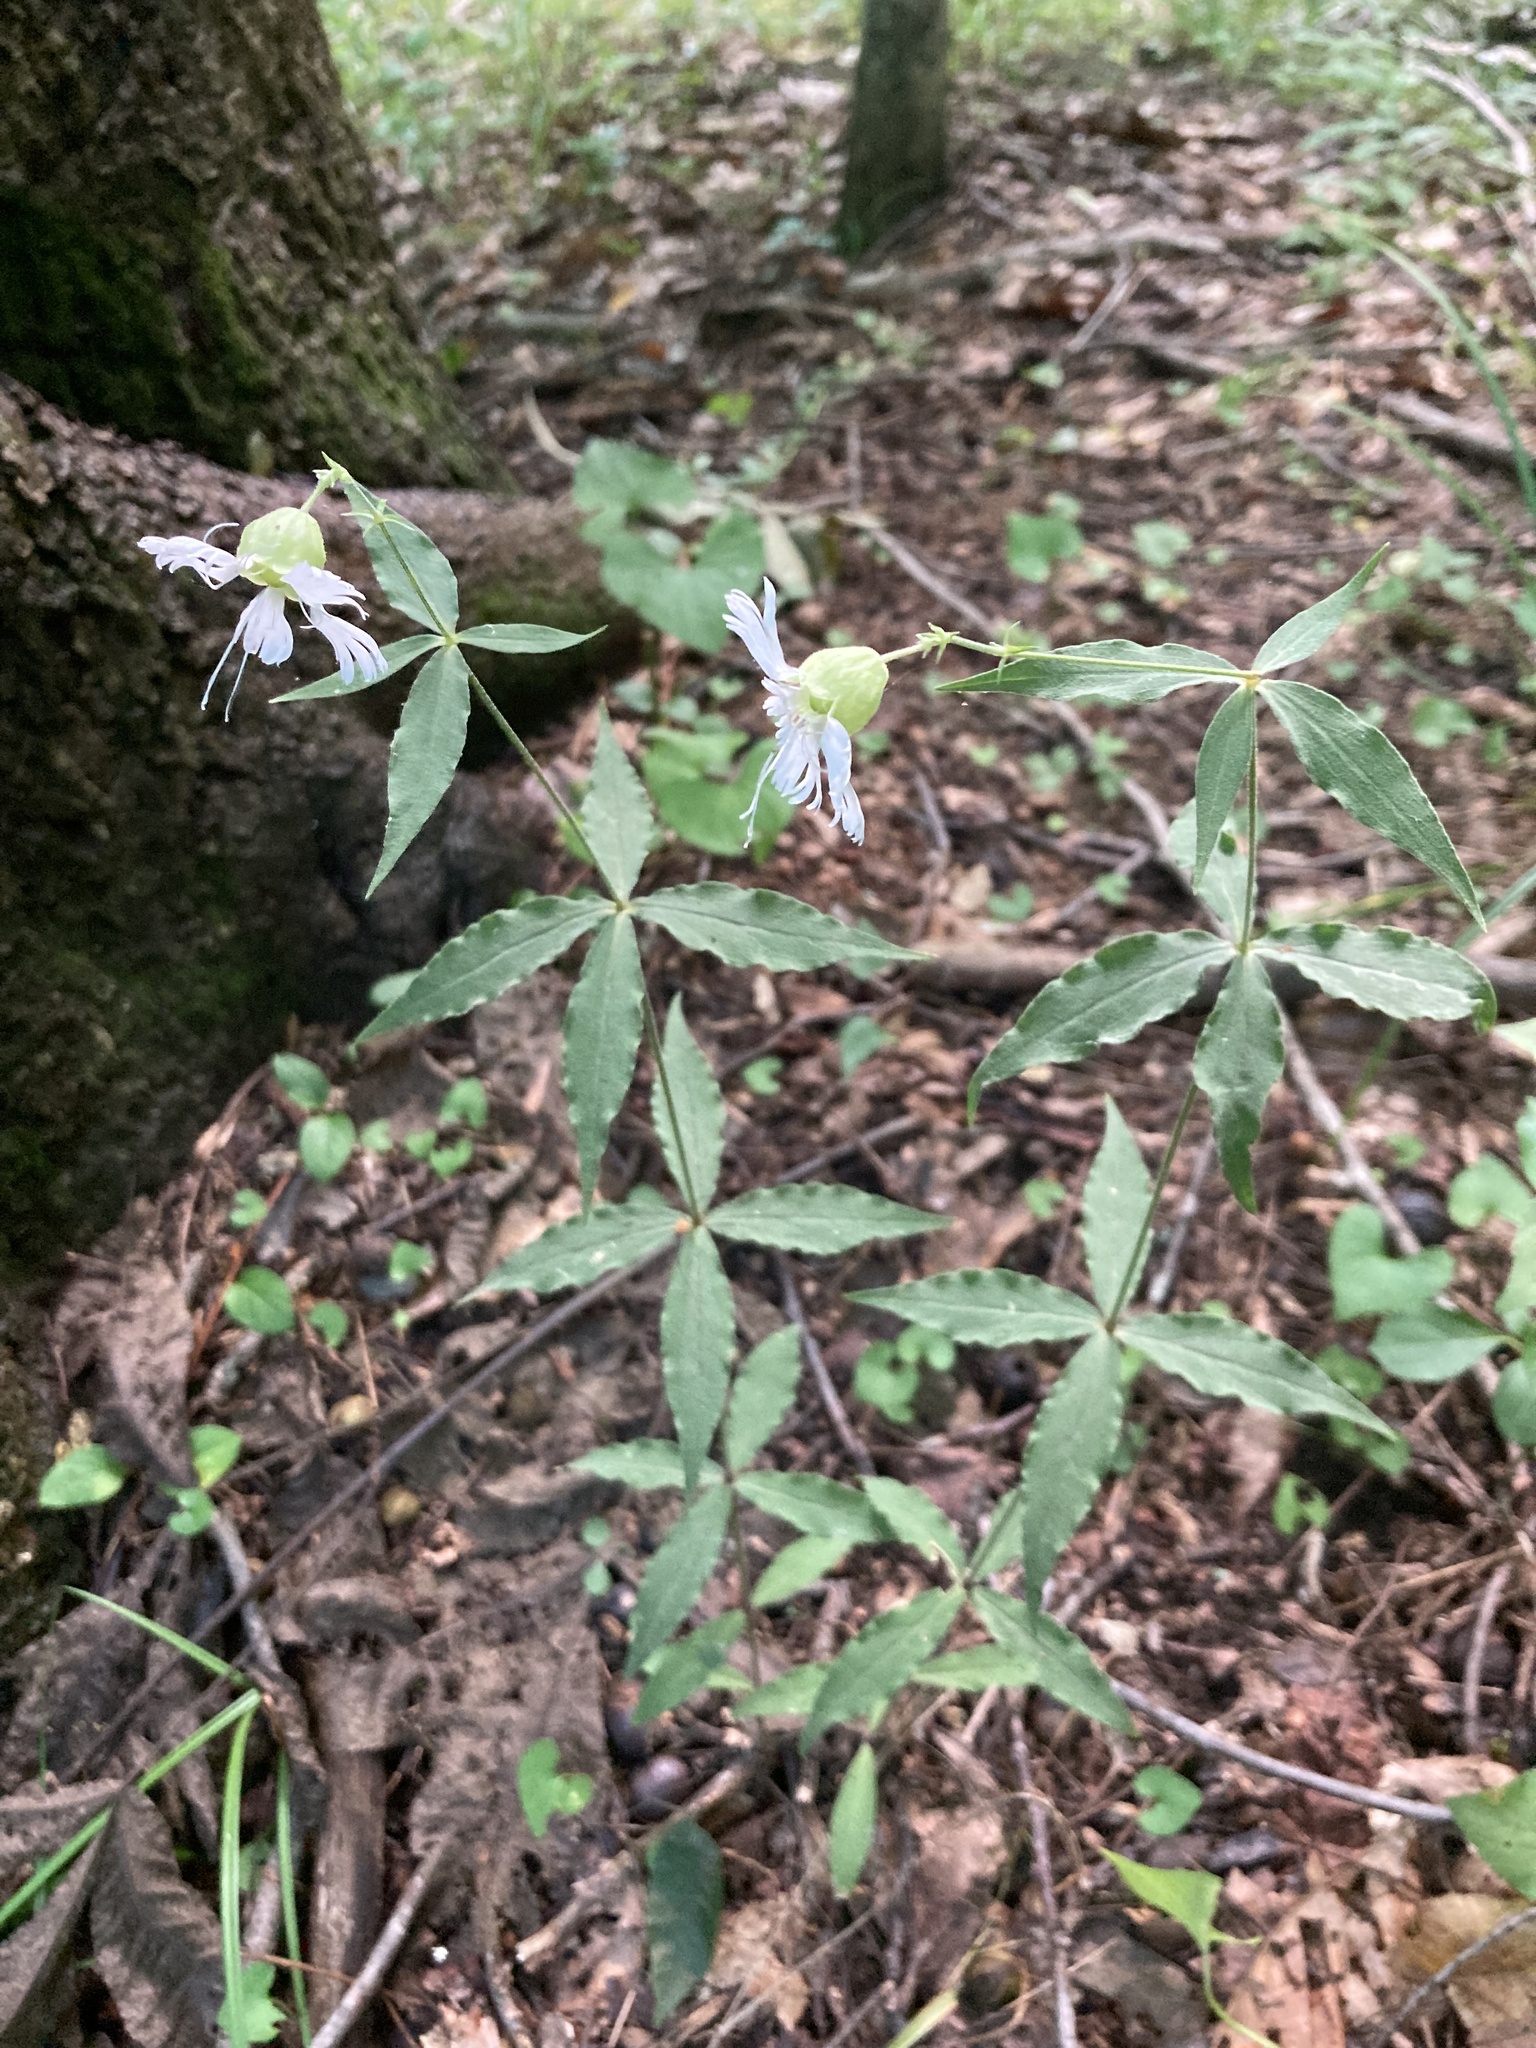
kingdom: Plantae
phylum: Tracheophyta
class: Magnoliopsida
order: Caryophyllales
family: Caryophyllaceae
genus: Silene
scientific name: Silene stellata
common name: Starry campion
